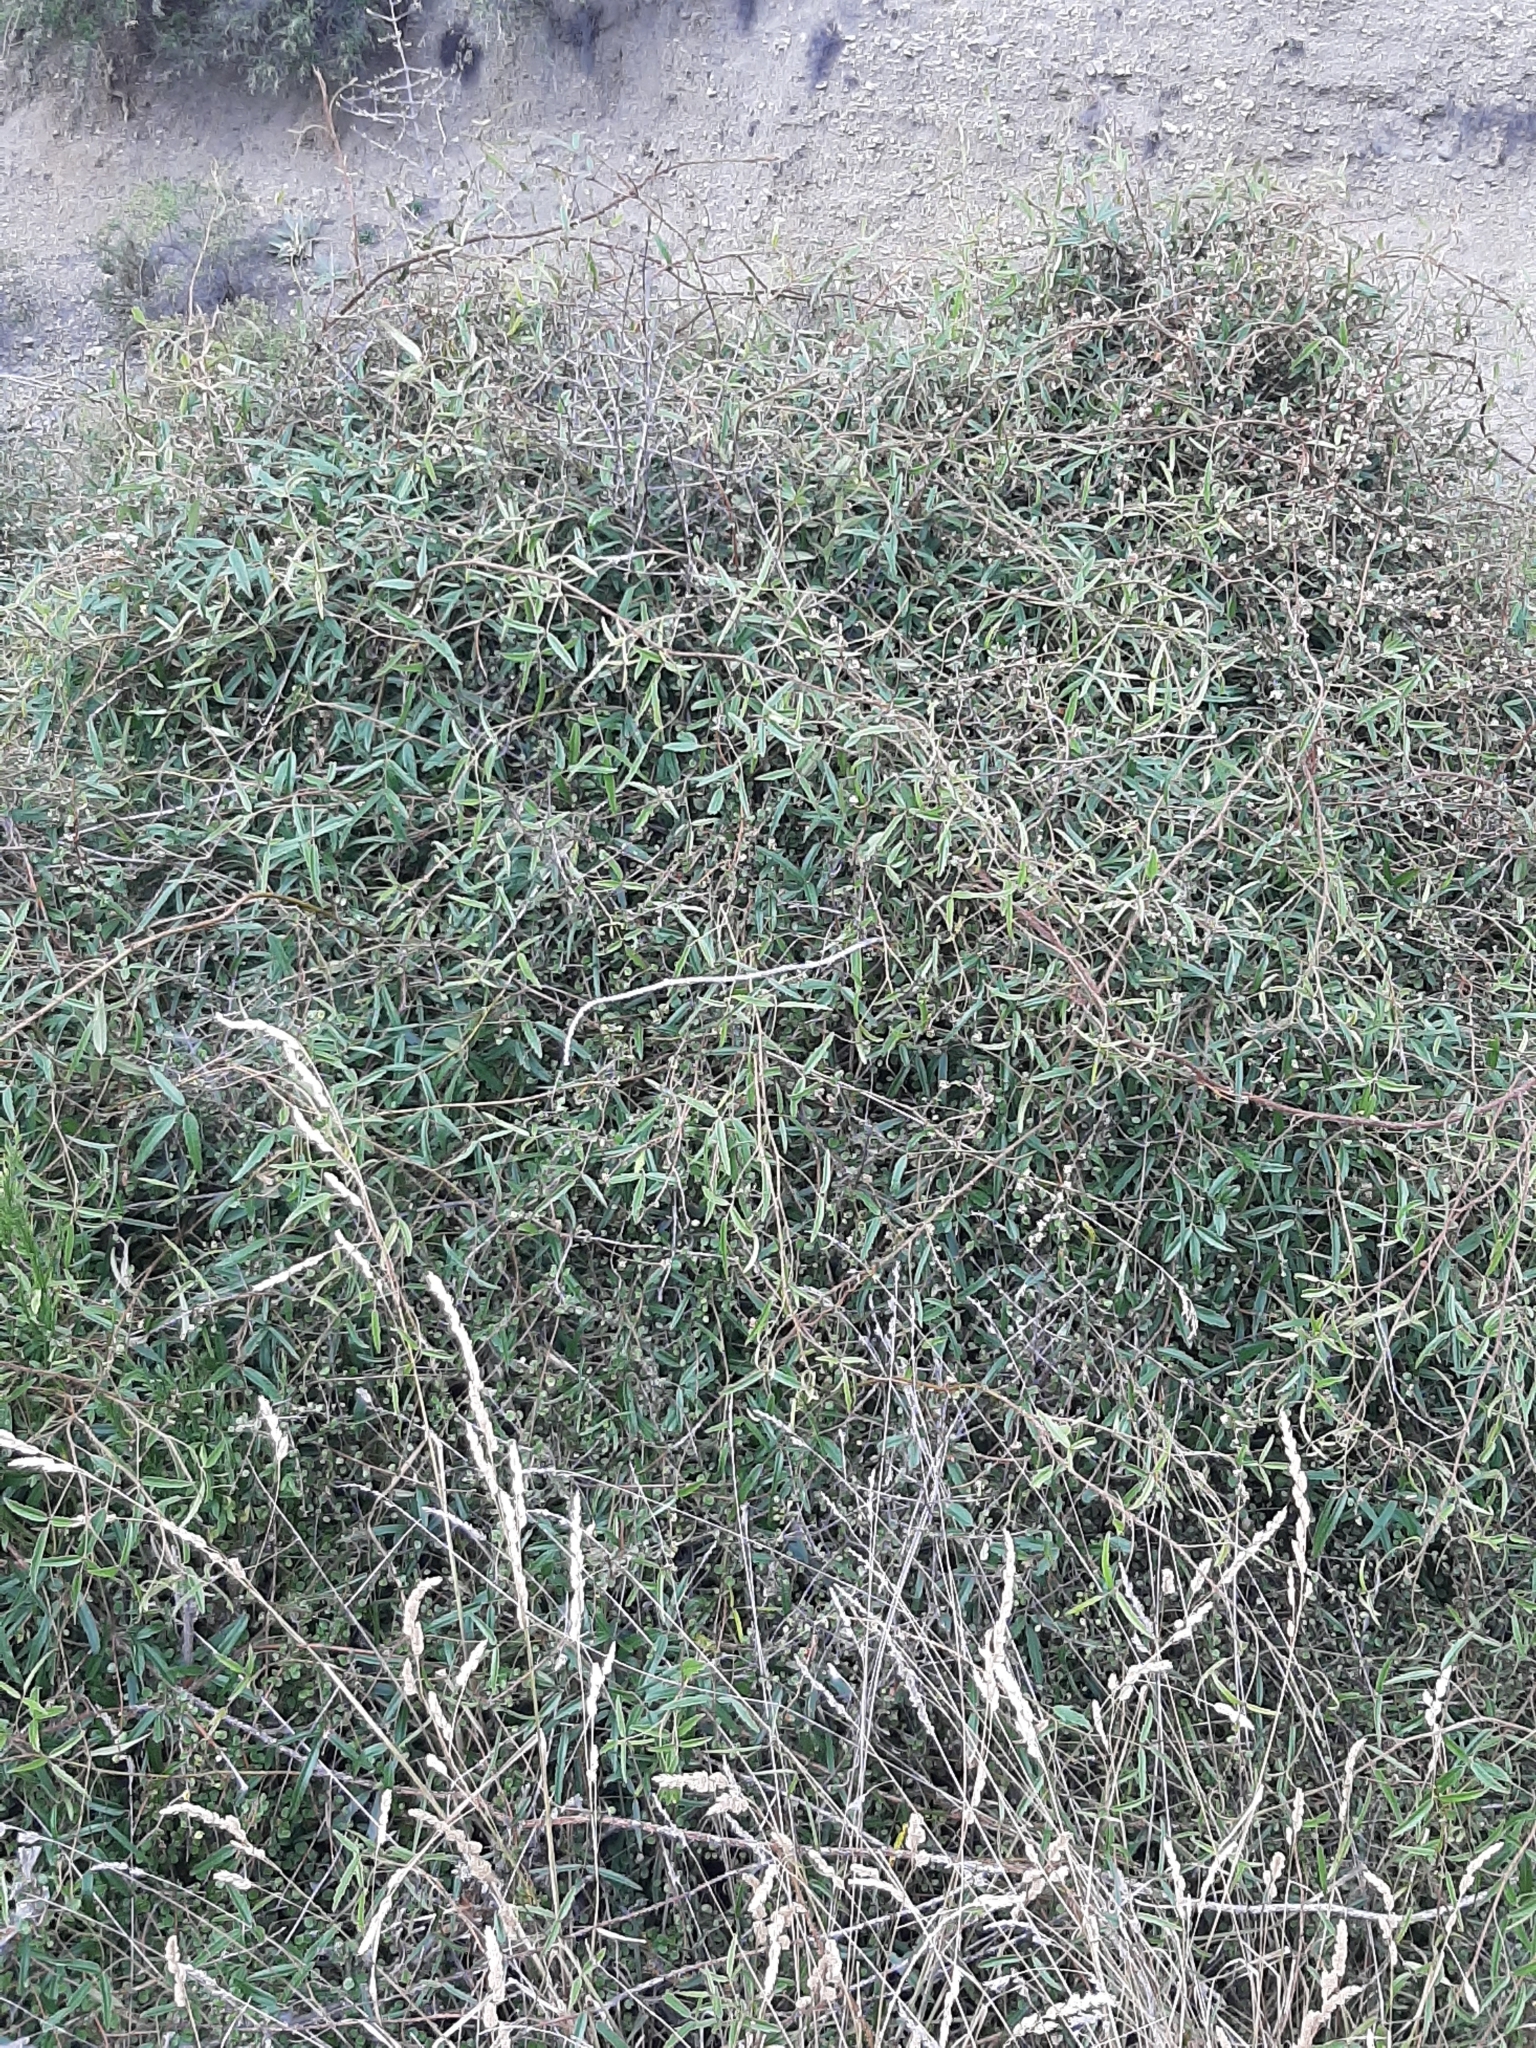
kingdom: Plantae
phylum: Tracheophyta
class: Magnoliopsida
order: Rosales
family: Rosaceae
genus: Rubus
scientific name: Rubus schmidelioides
